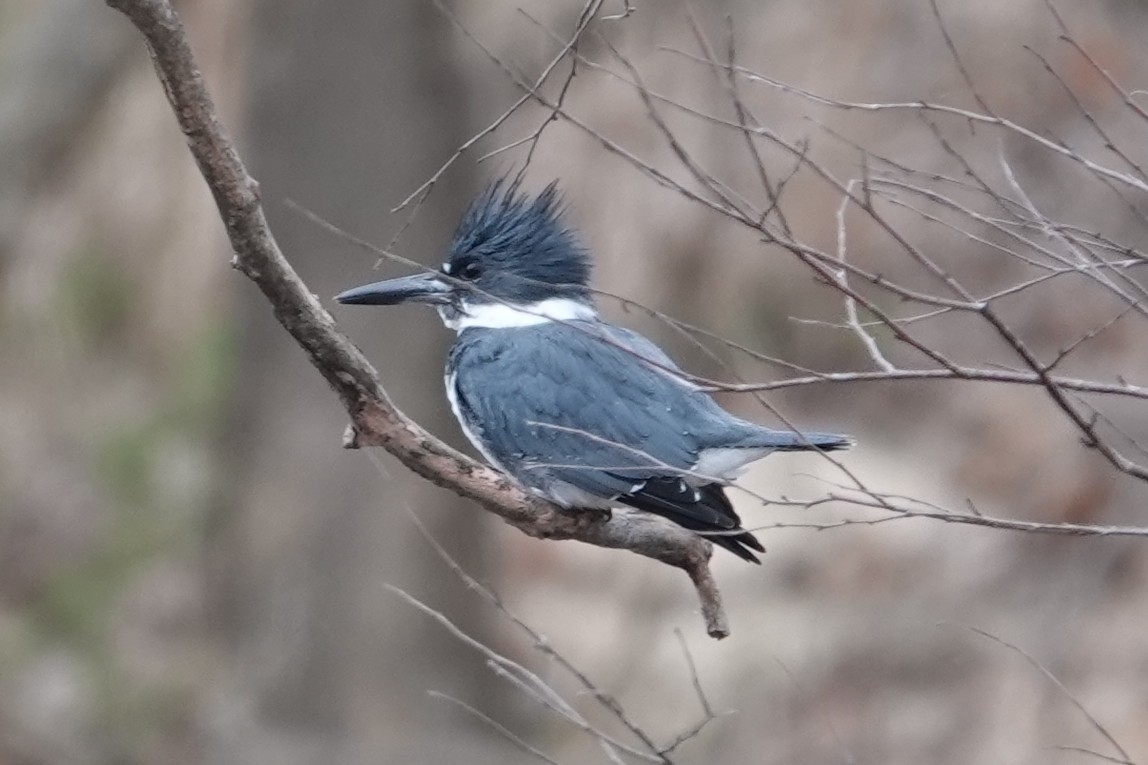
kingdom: Animalia
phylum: Chordata
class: Aves
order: Coraciiformes
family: Alcedinidae
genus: Megaceryle
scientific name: Megaceryle alcyon
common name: Belted kingfisher
